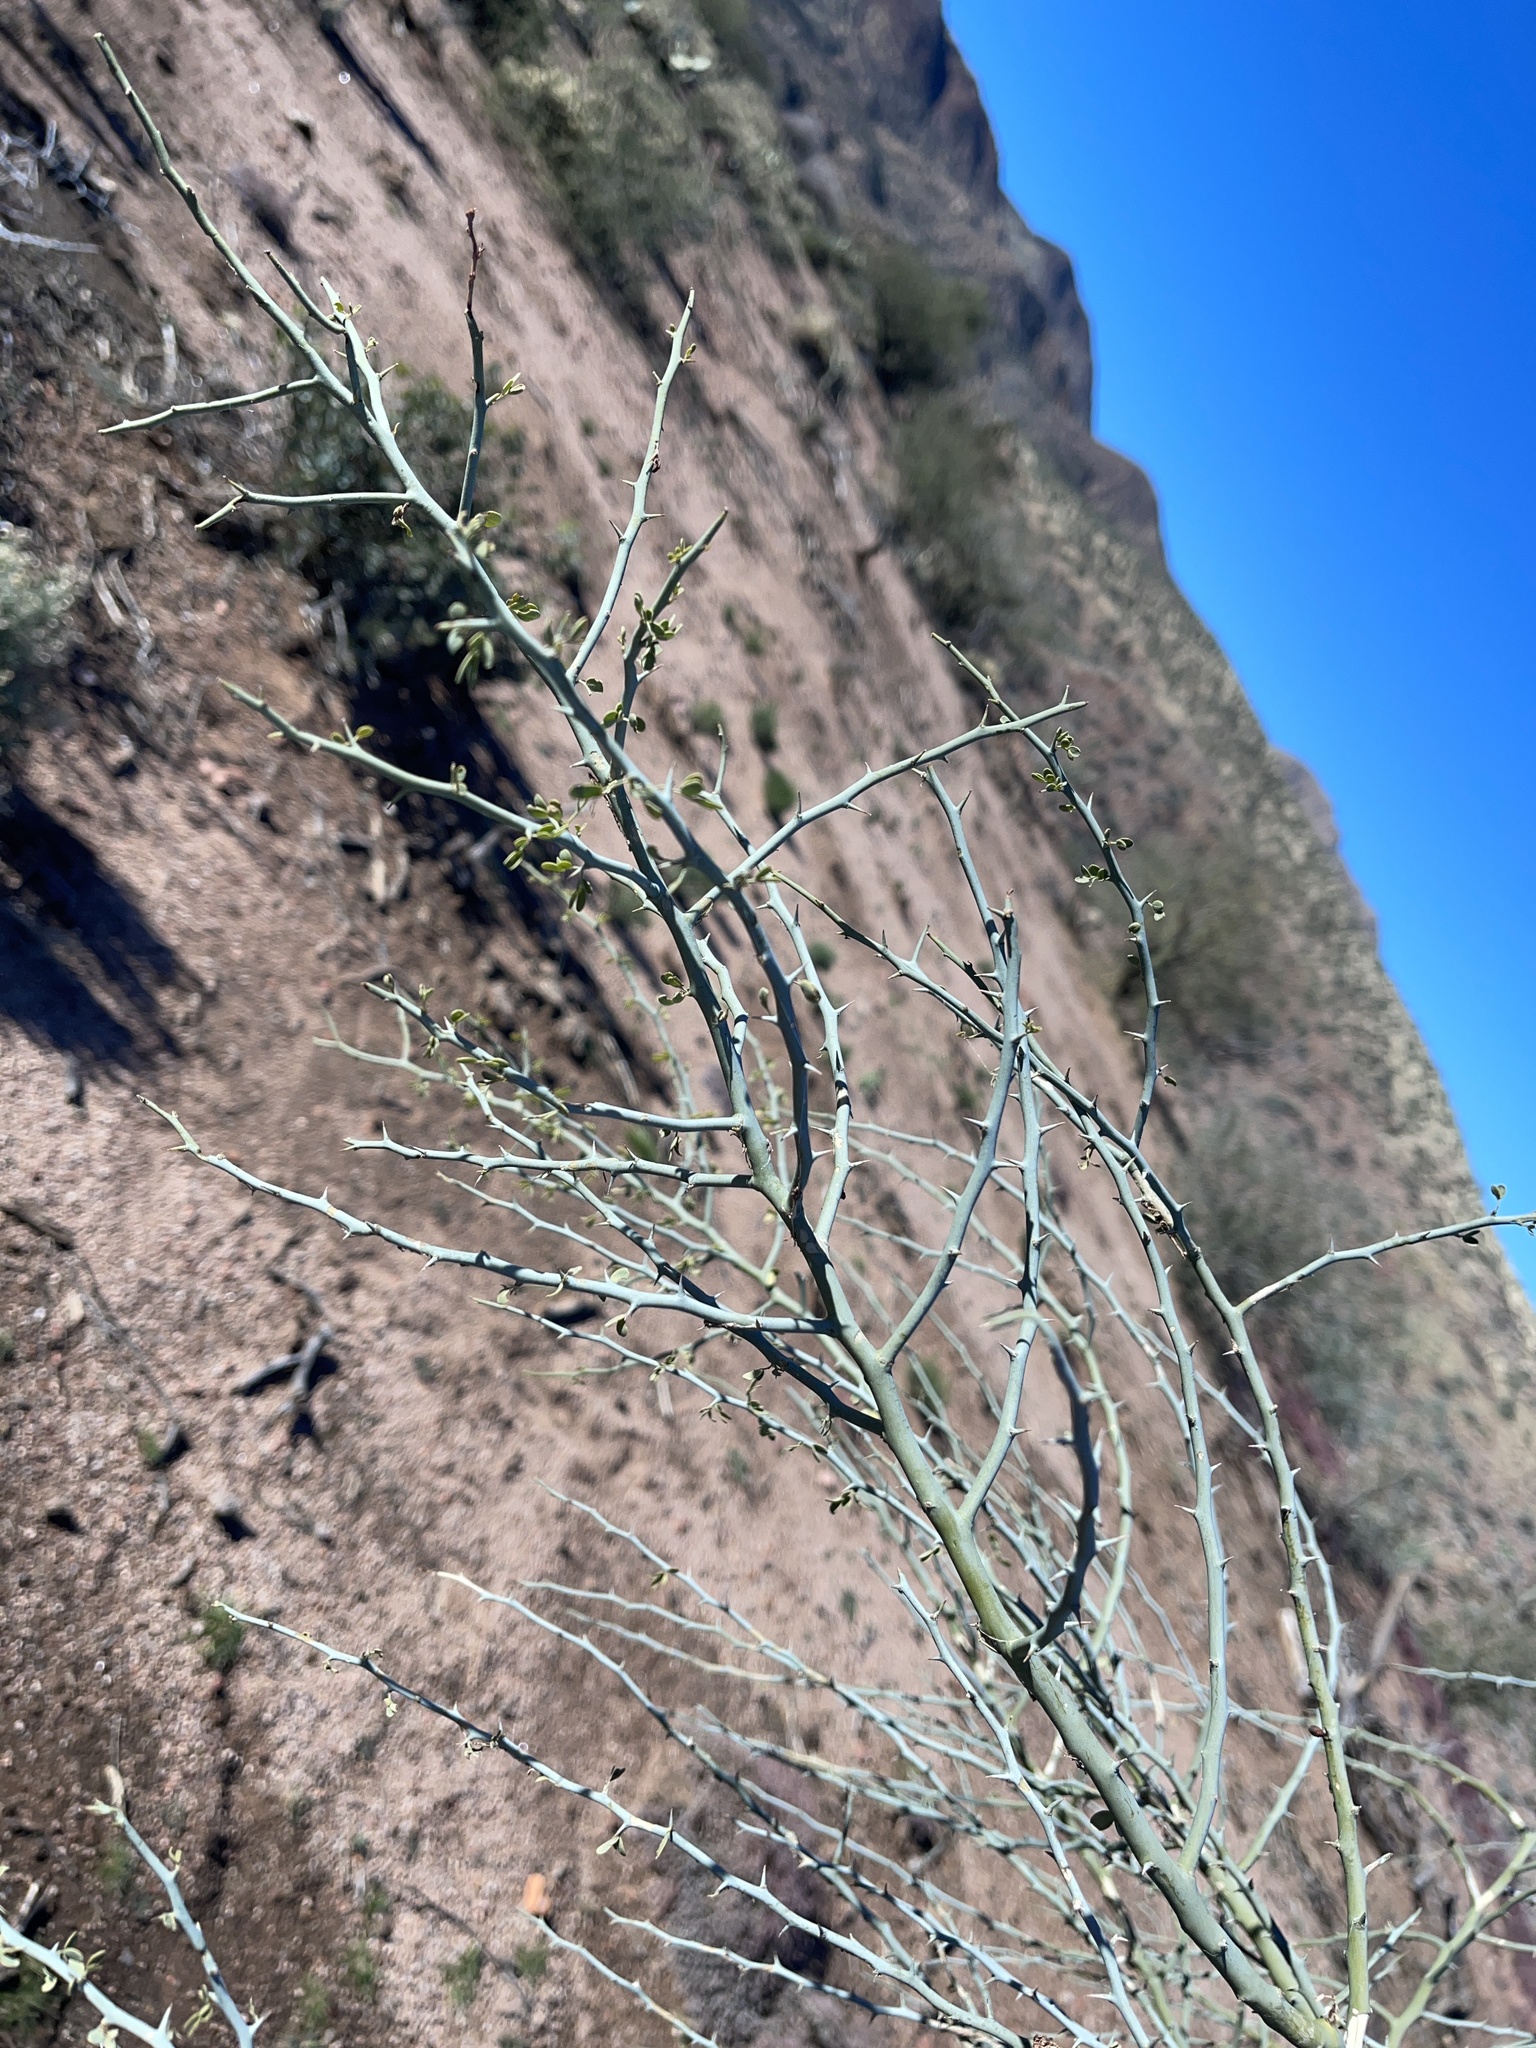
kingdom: Plantae
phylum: Tracheophyta
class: Magnoliopsida
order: Fabales
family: Fabaceae
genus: Parkinsonia
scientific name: Parkinsonia florida
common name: Blue paloverde
